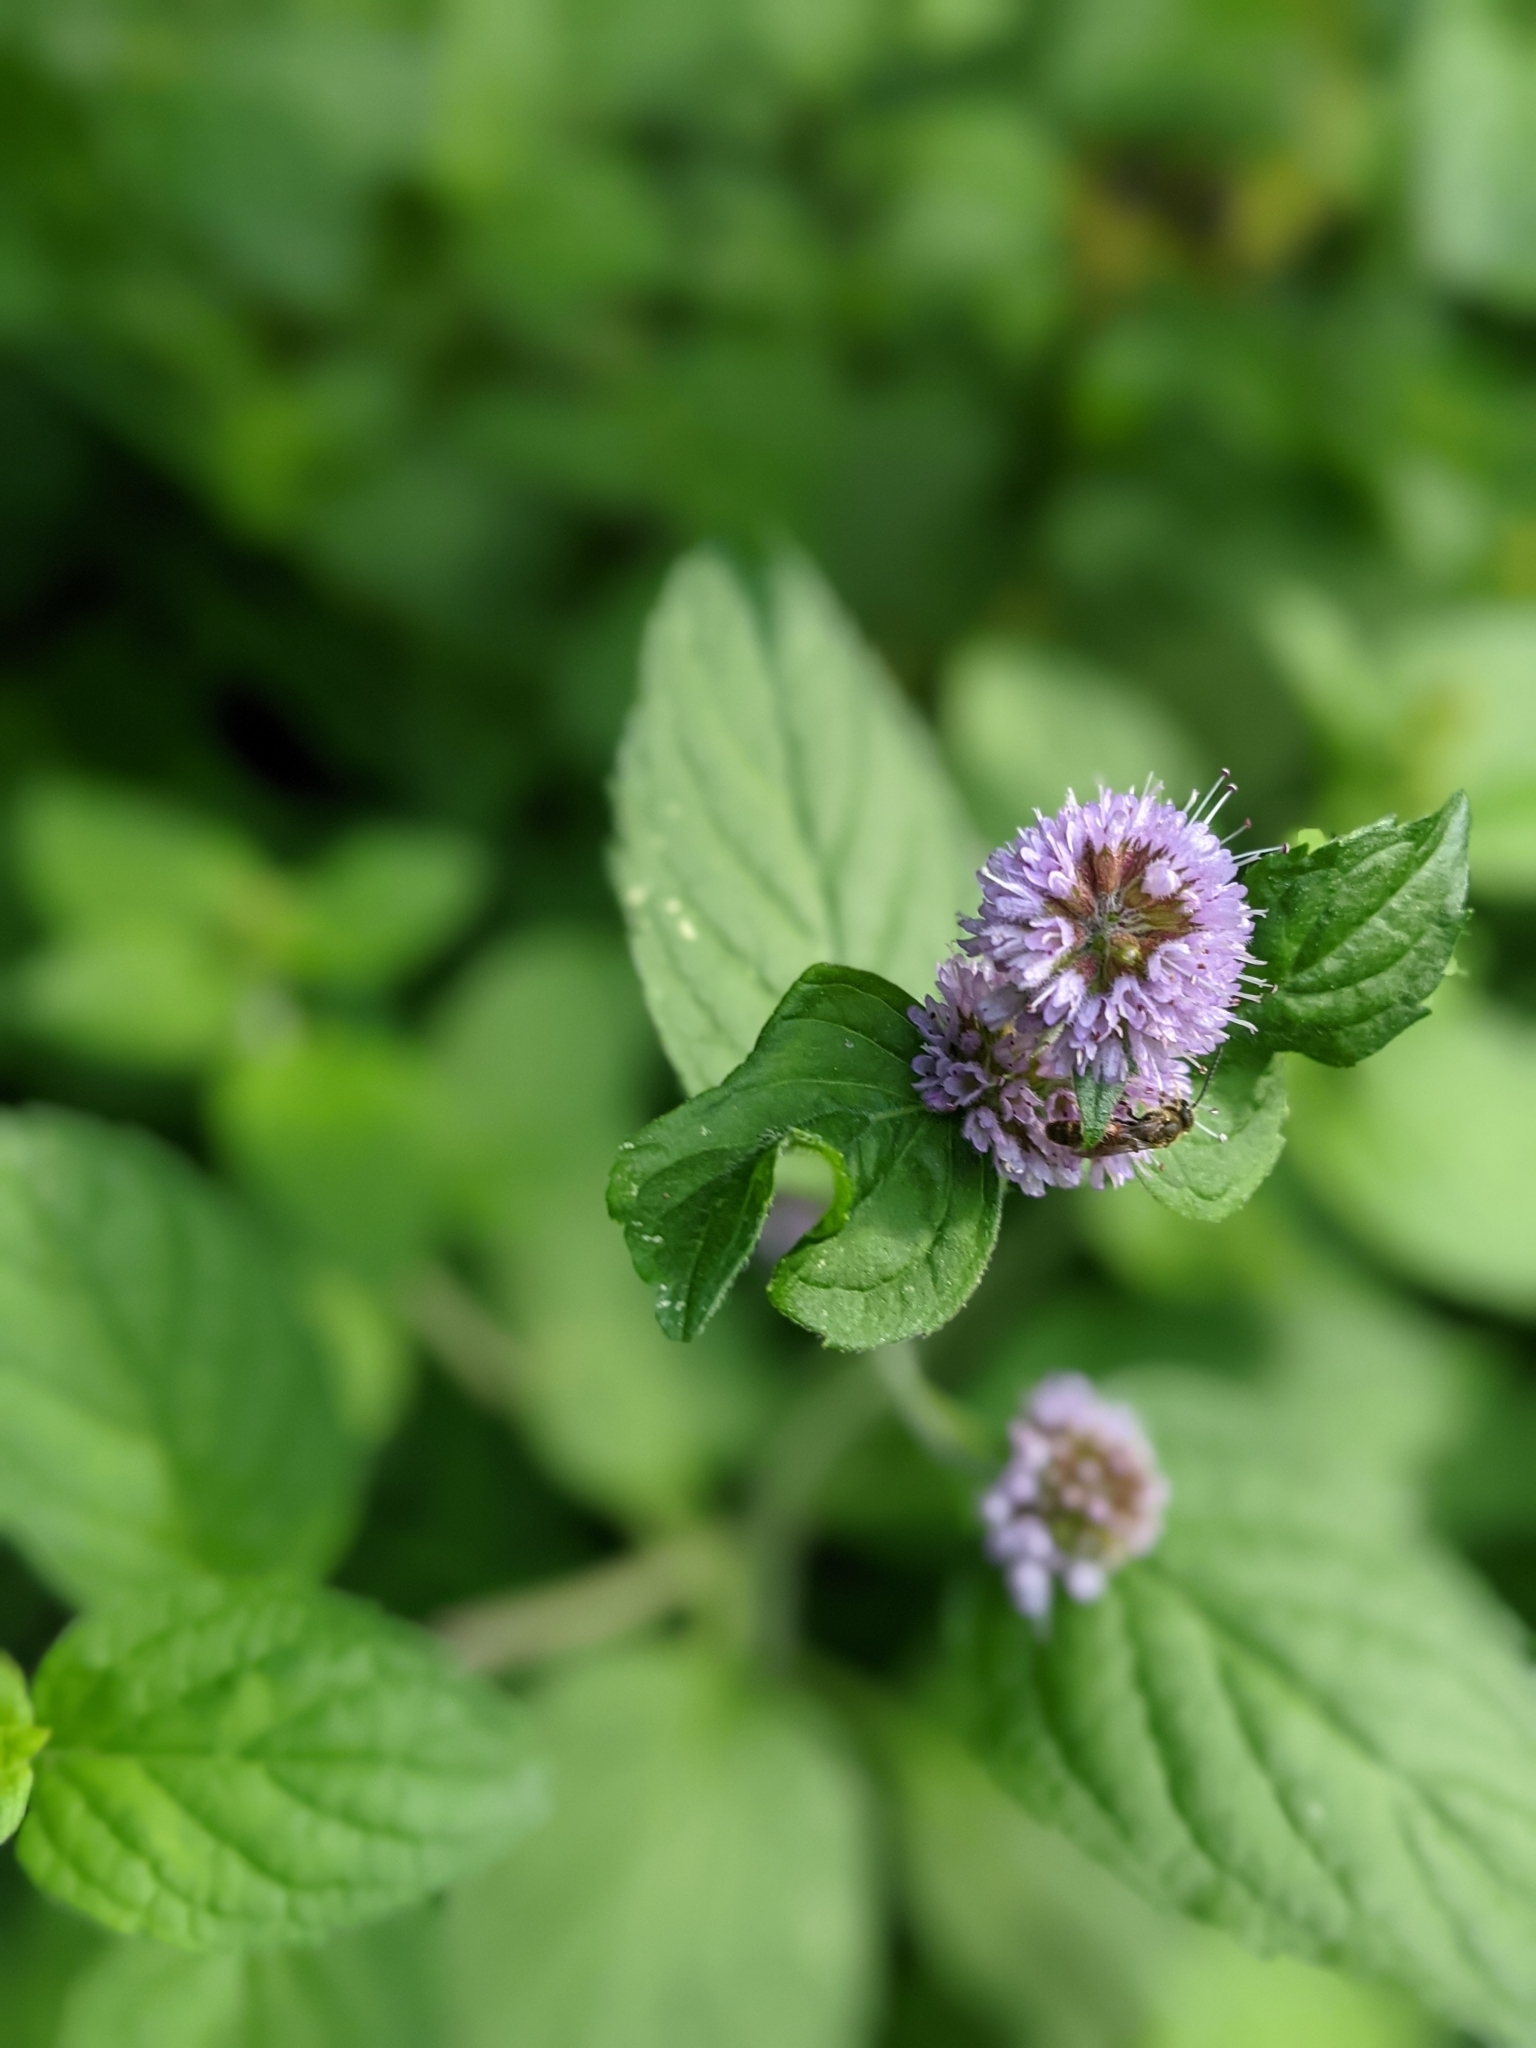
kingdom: Plantae
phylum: Tracheophyta
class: Magnoliopsida
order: Lamiales
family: Lamiaceae
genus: Mentha
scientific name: Mentha aquatica
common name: Water mint
